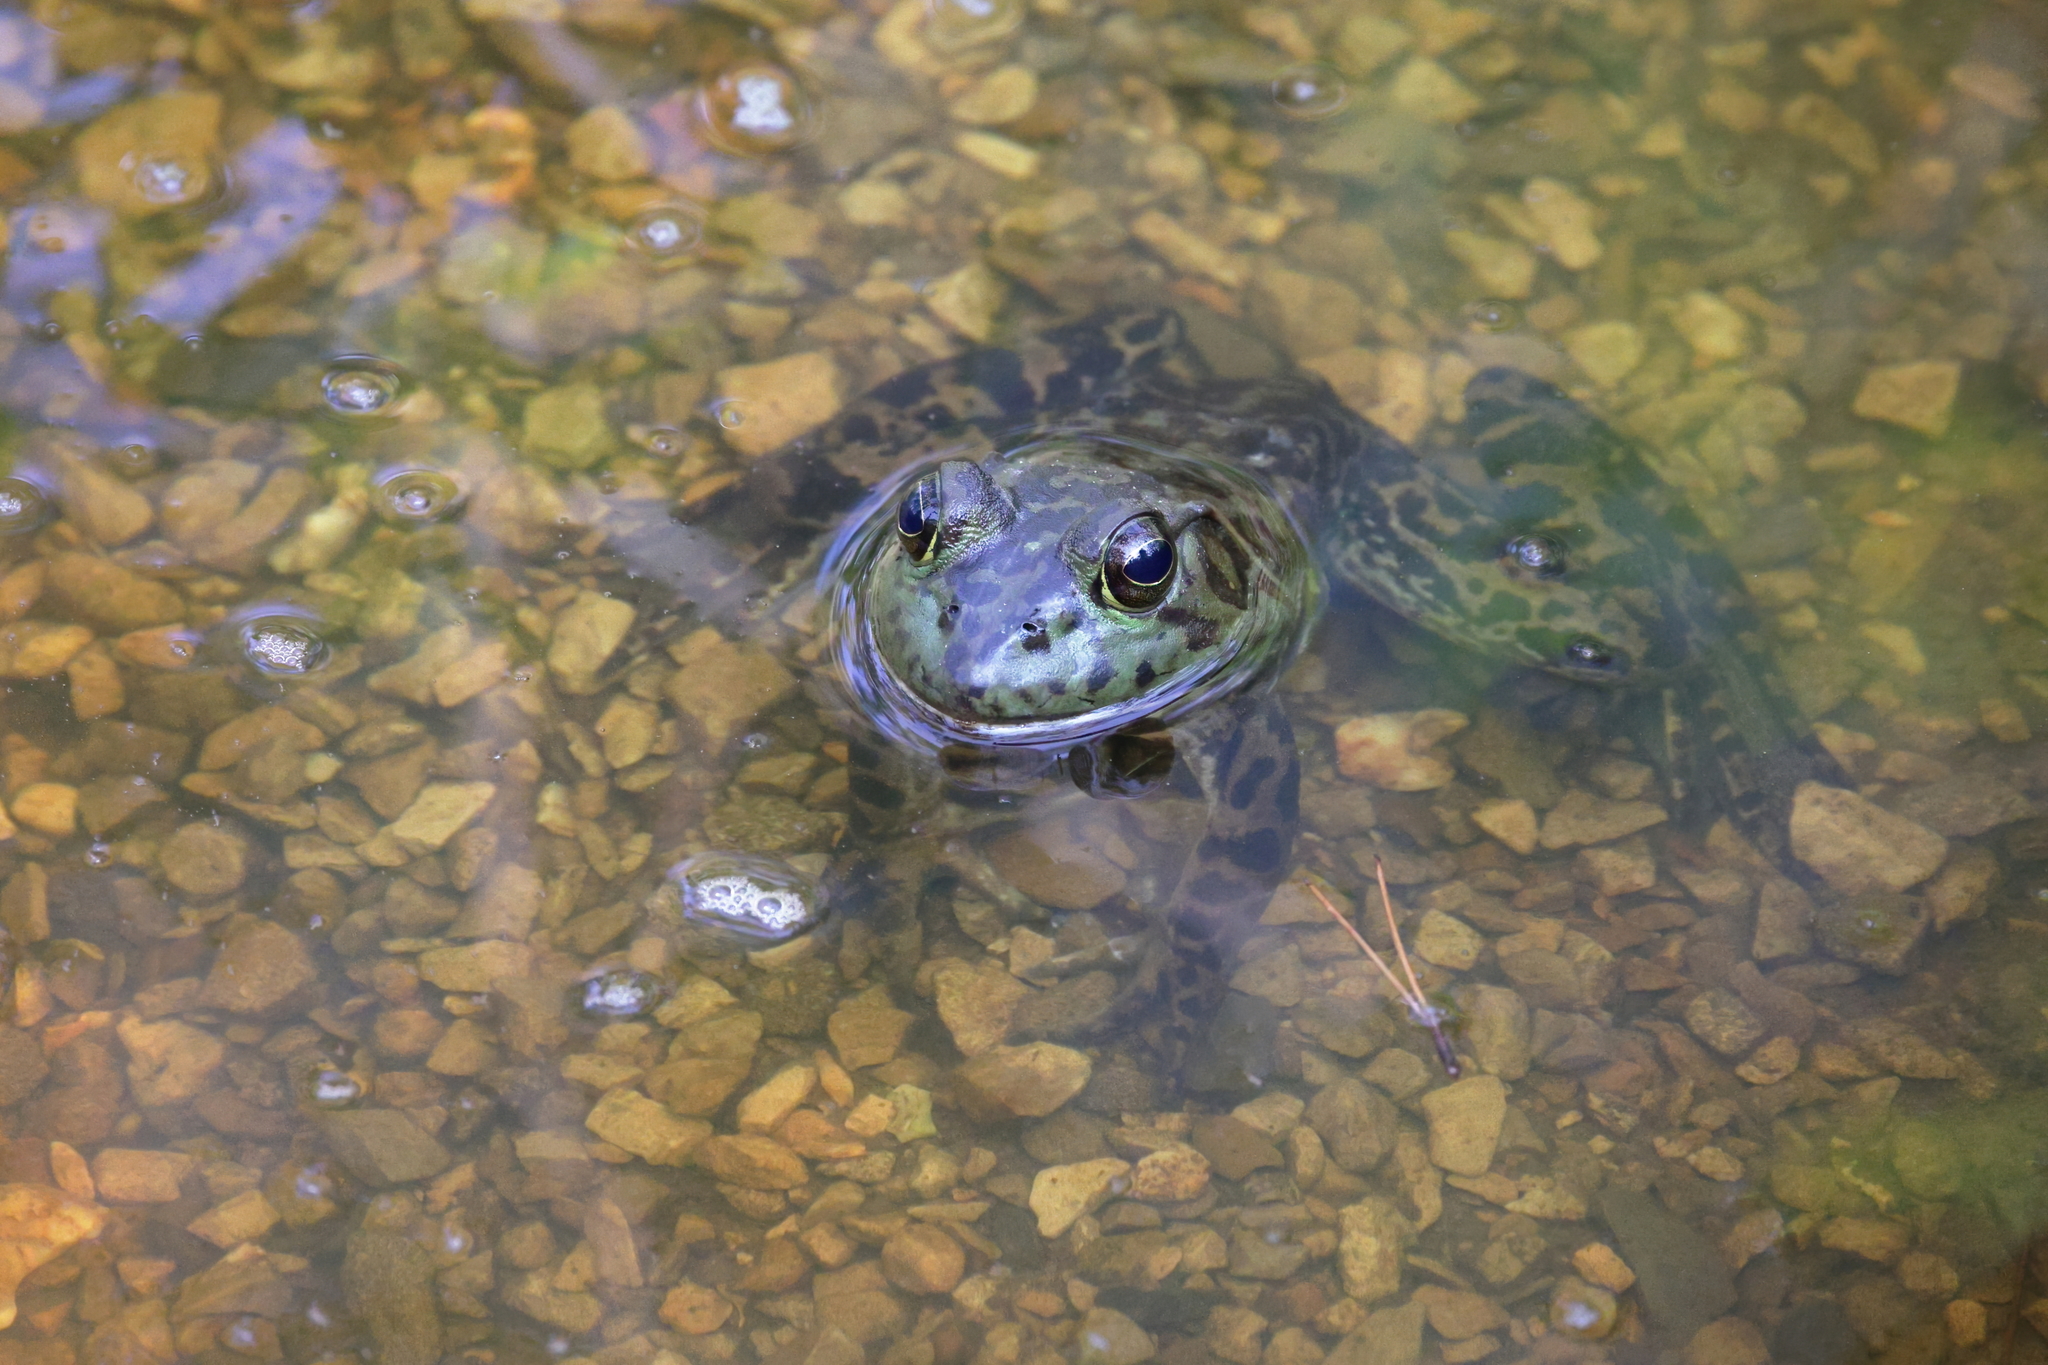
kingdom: Animalia
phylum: Chordata
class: Amphibia
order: Anura
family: Ranidae
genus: Lithobates
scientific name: Lithobates catesbeianus
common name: American bullfrog
